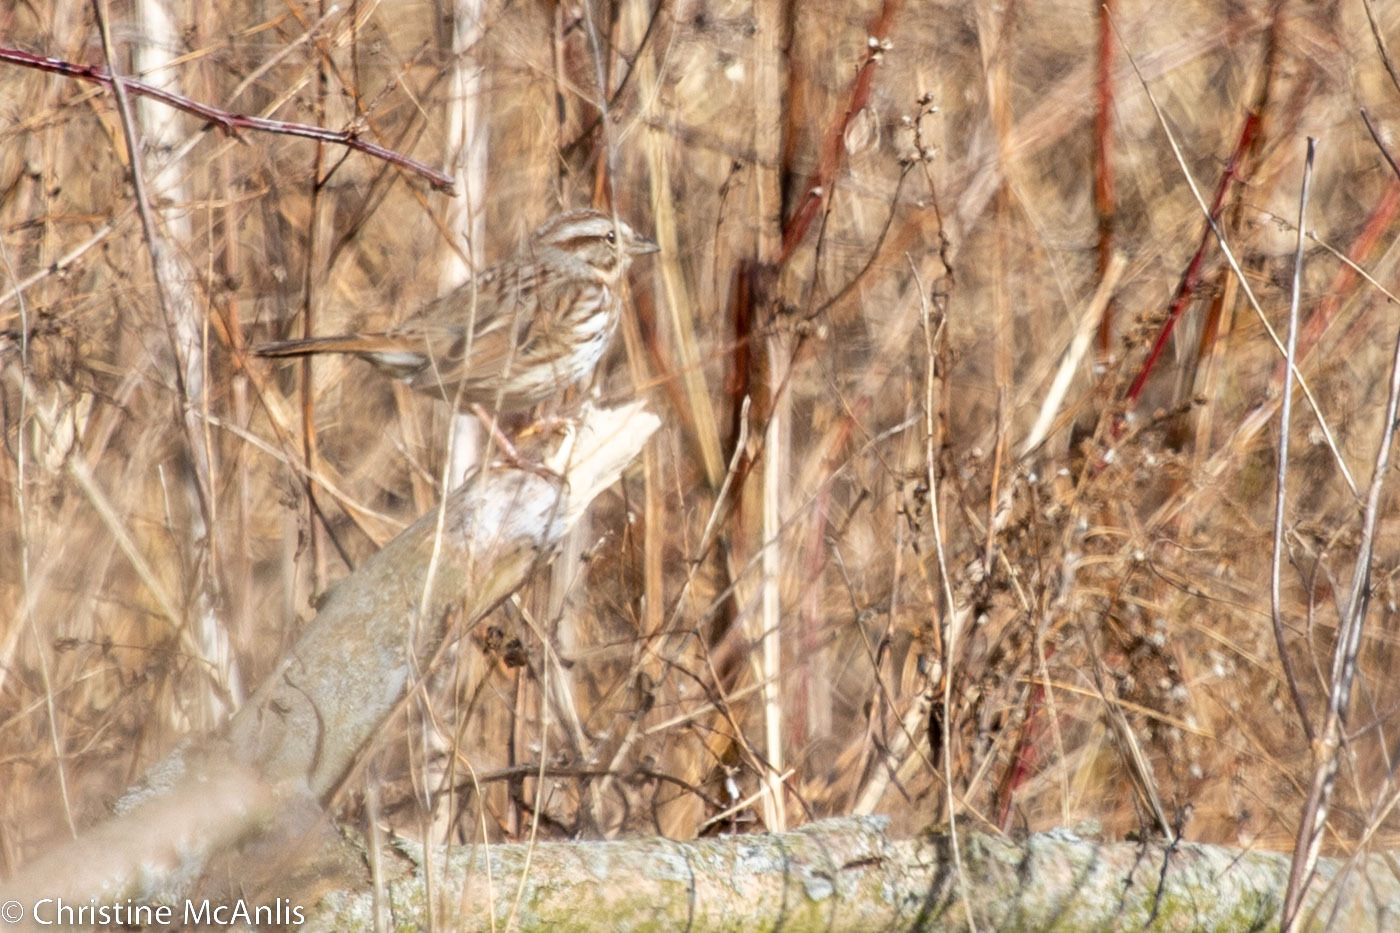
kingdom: Animalia
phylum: Chordata
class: Aves
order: Passeriformes
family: Passerellidae
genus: Melospiza
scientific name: Melospiza melodia
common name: Song sparrow
